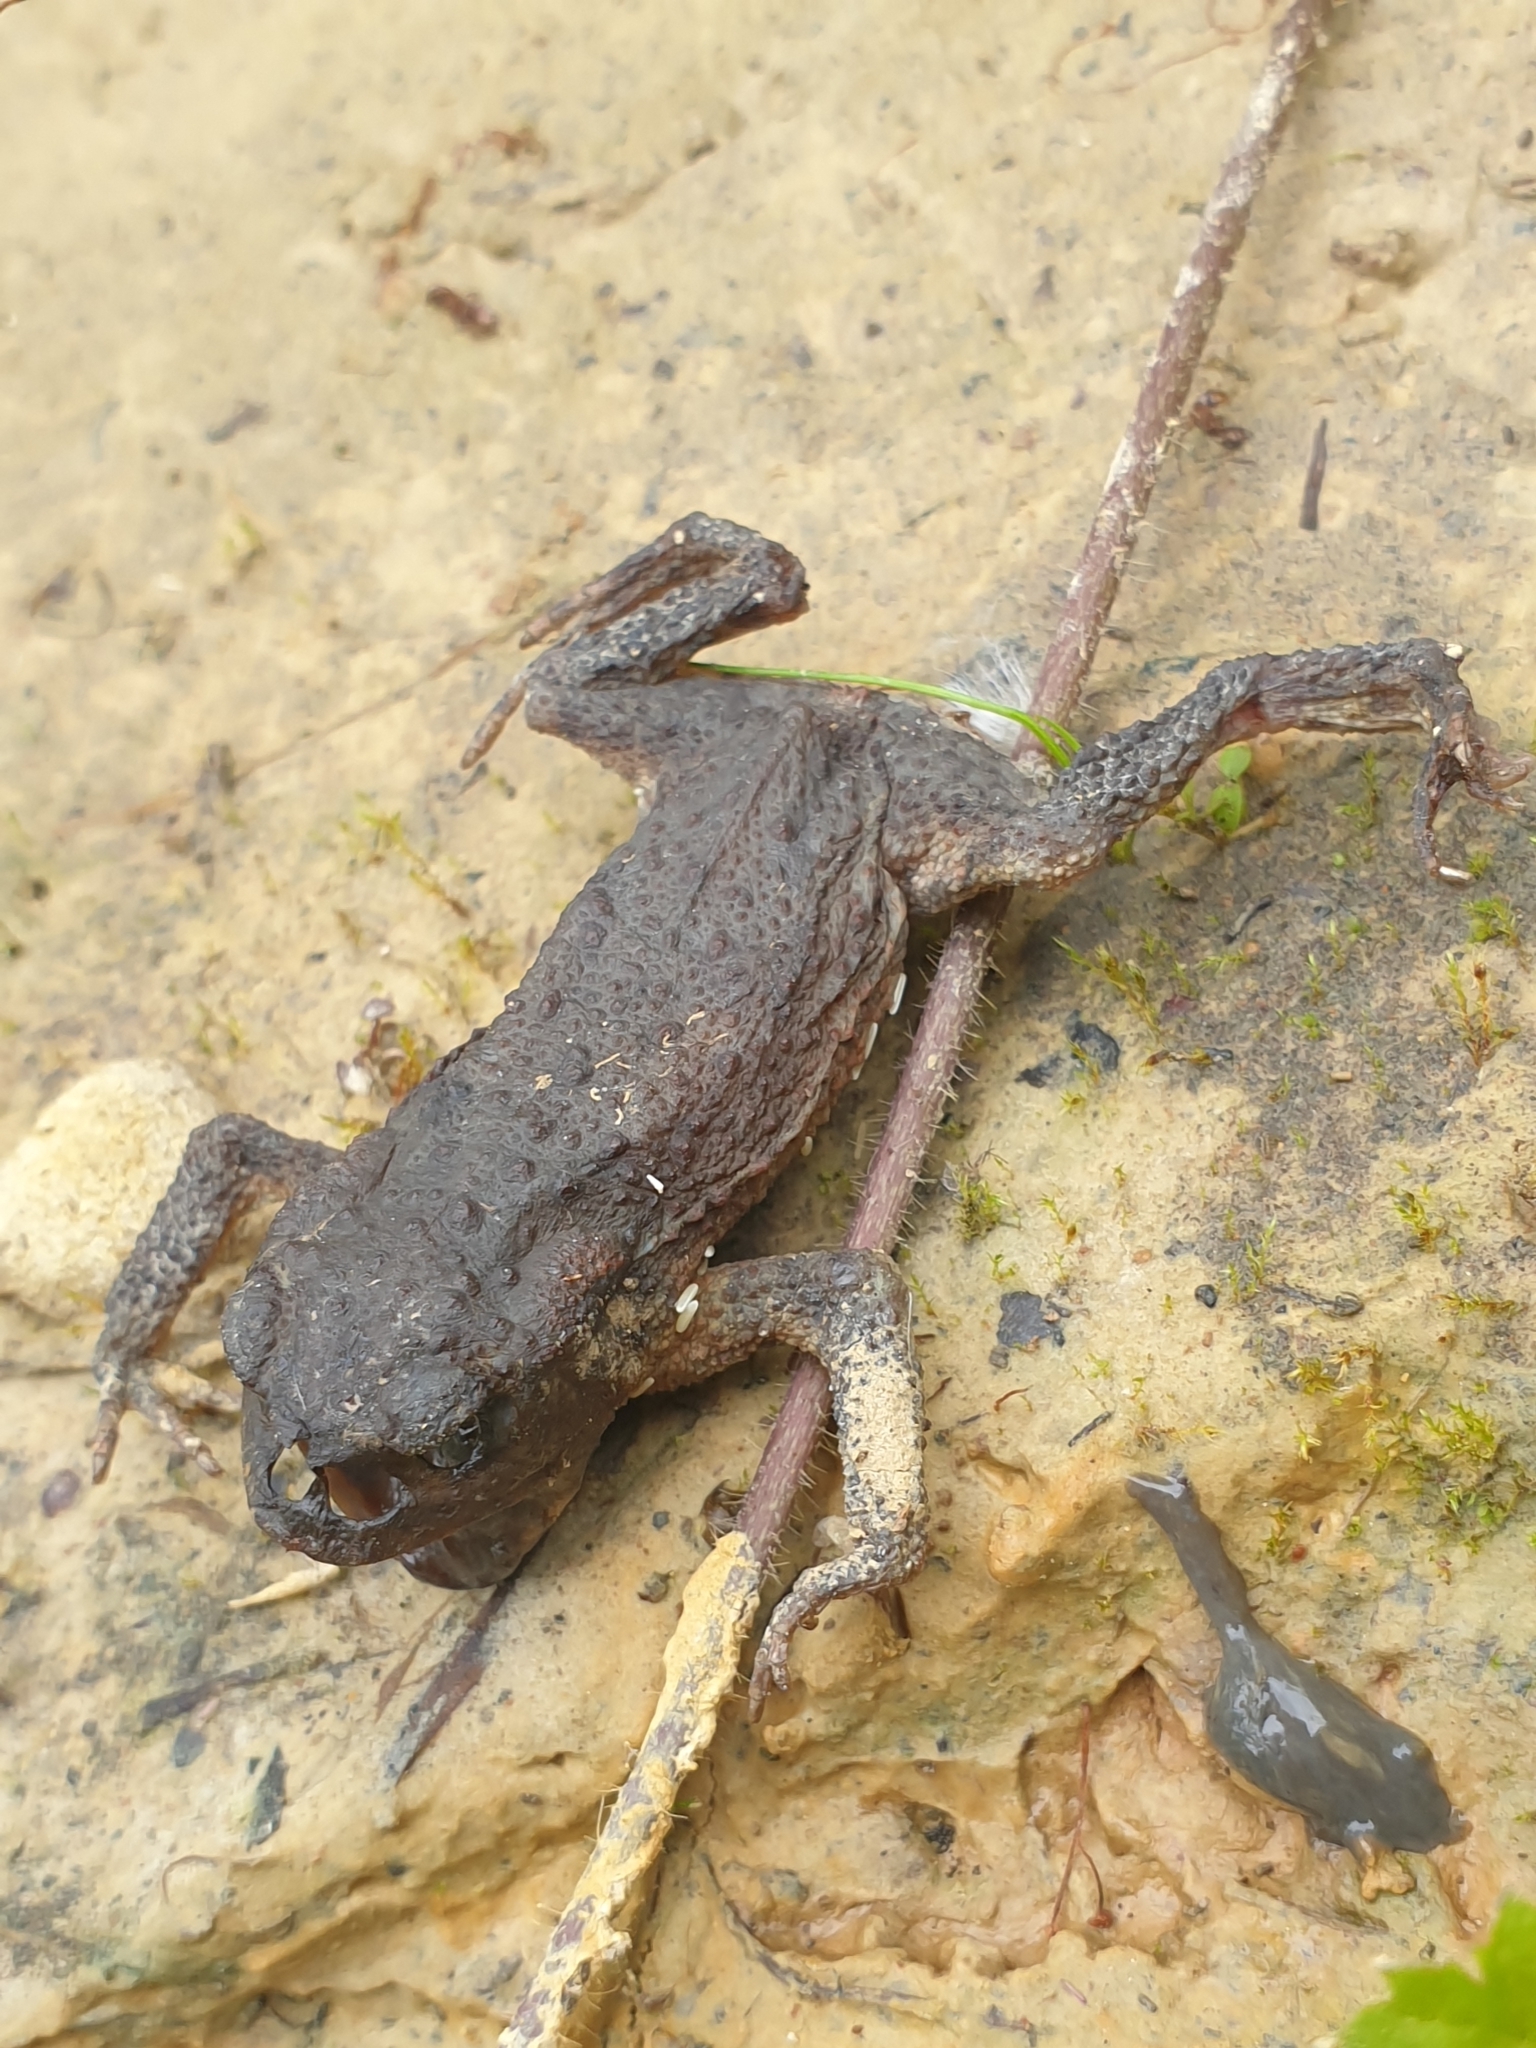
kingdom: Animalia
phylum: Chordata
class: Amphibia
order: Anura
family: Bufonidae
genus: Bufo
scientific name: Bufo bufo
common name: Common toad
